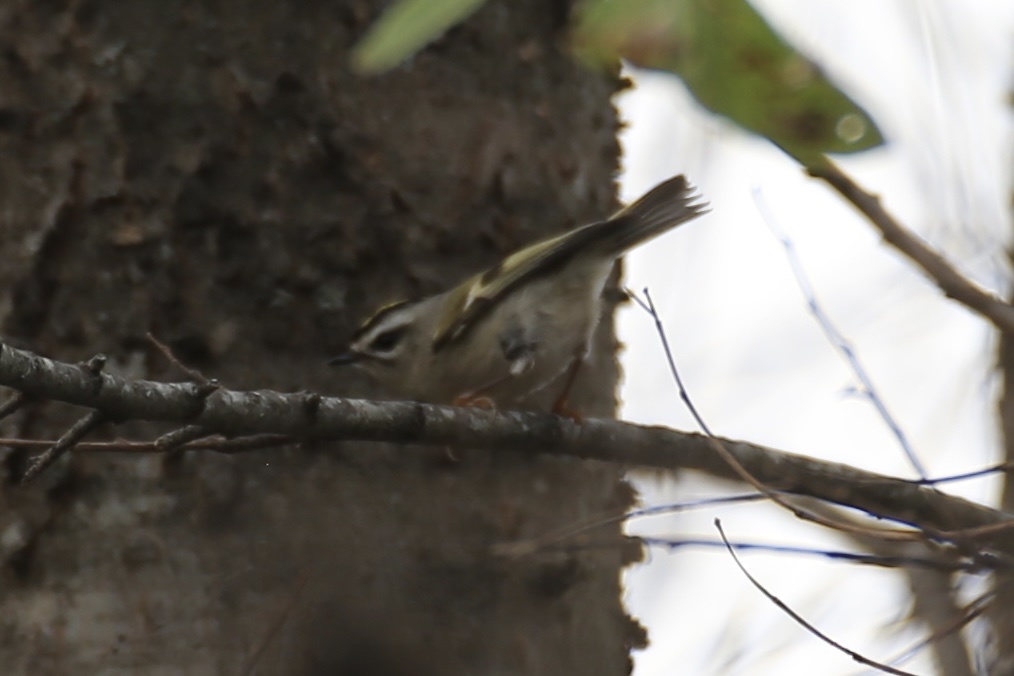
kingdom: Animalia
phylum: Chordata
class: Aves
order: Passeriformes
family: Regulidae
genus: Regulus
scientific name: Regulus satrapa
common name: Golden-crowned kinglet
